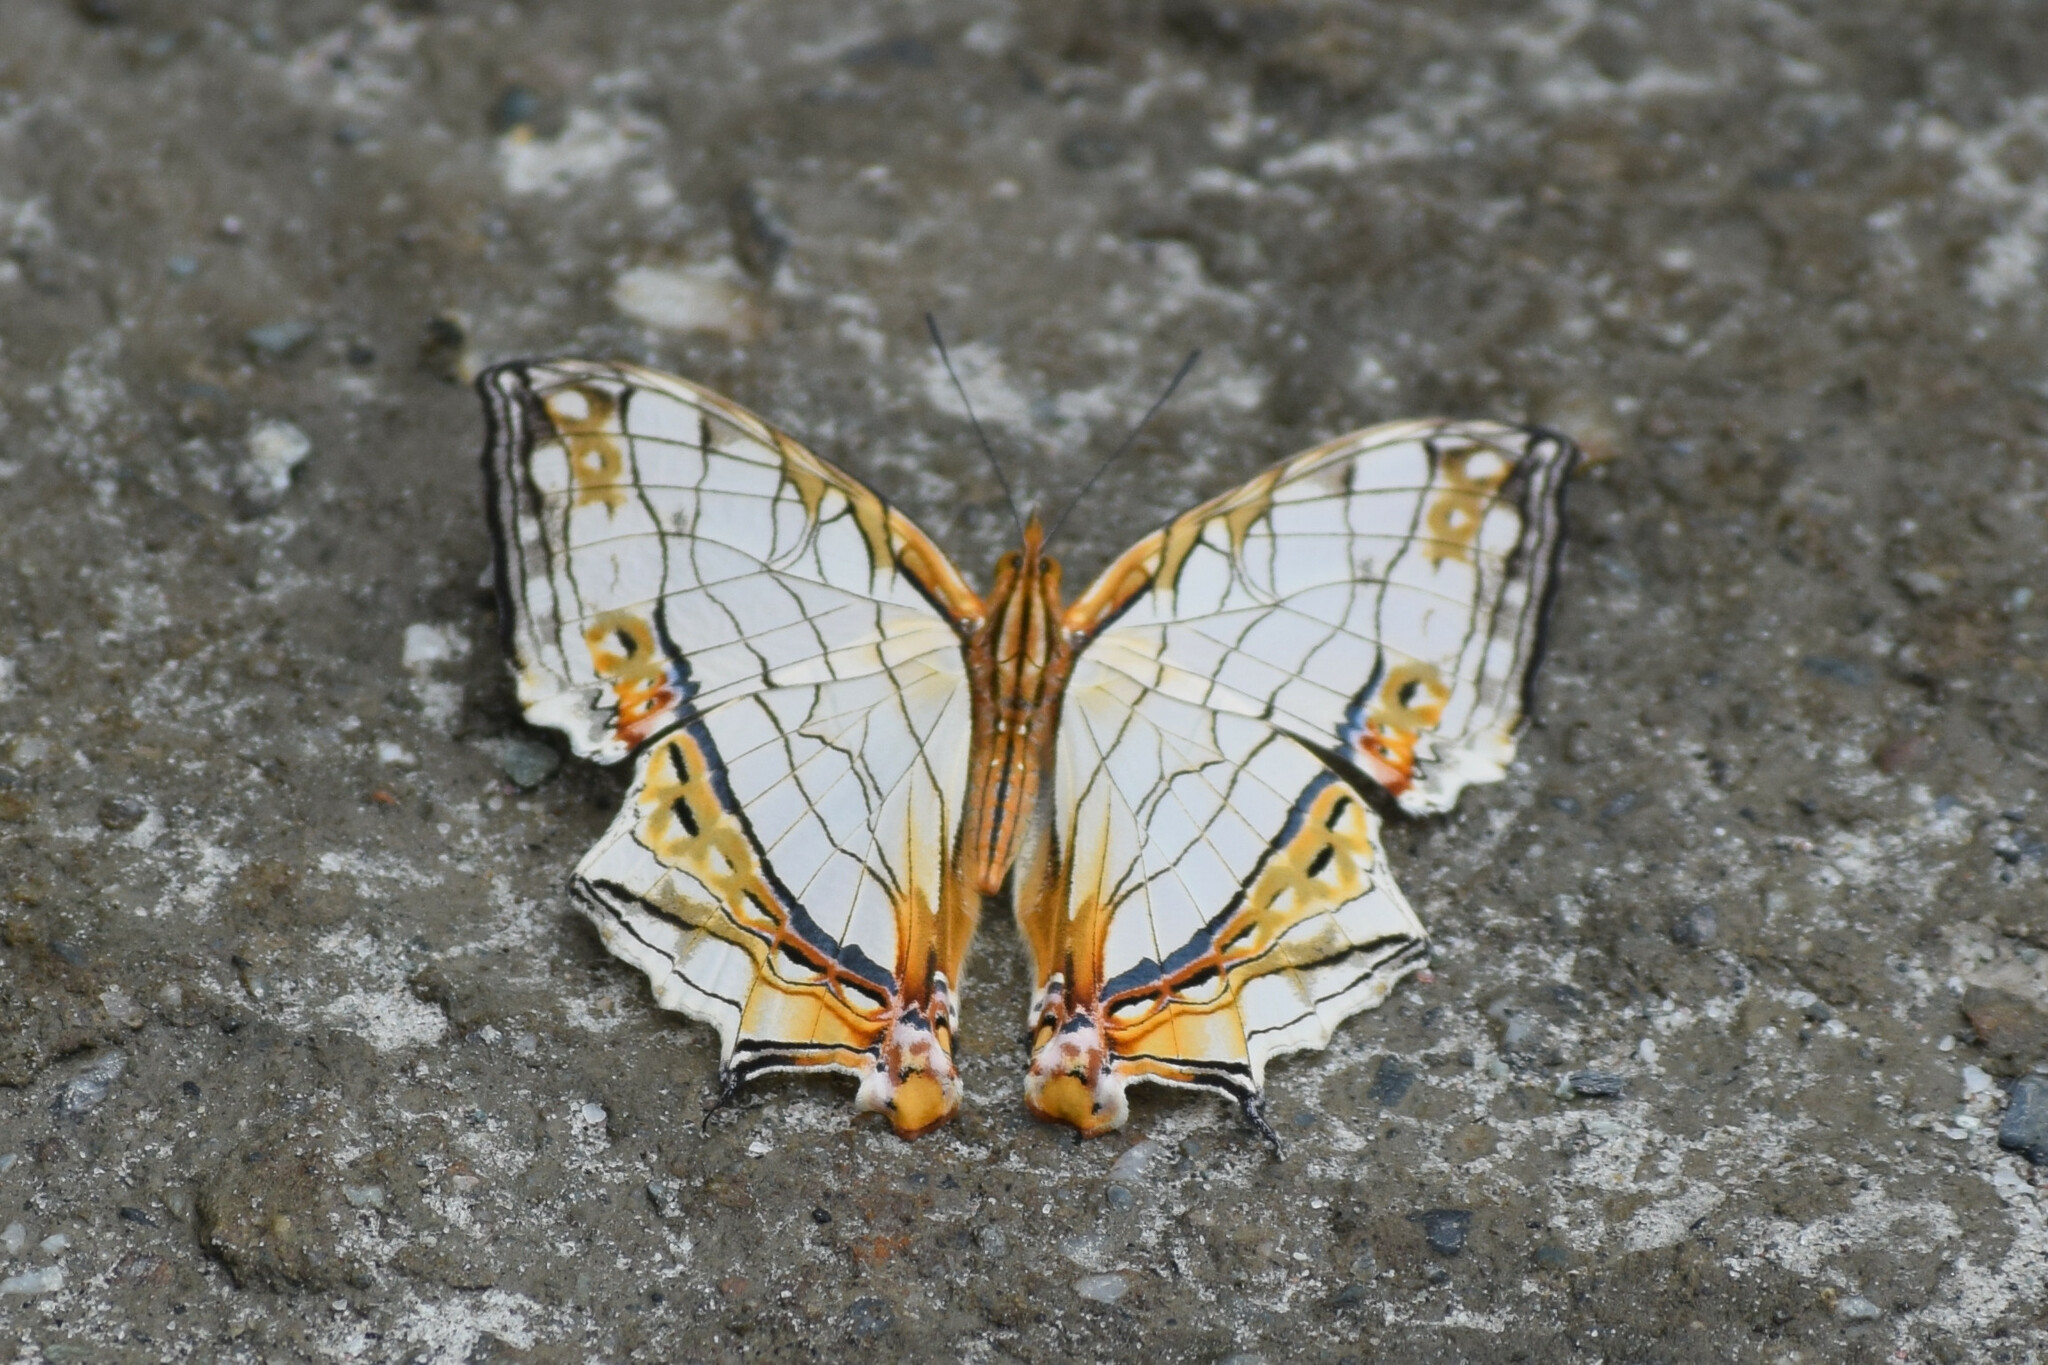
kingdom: Animalia
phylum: Arthropoda
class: Insecta
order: Lepidoptera
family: Nymphalidae
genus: Cyrestis
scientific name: Cyrestis thyodamas
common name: Common mapwing
